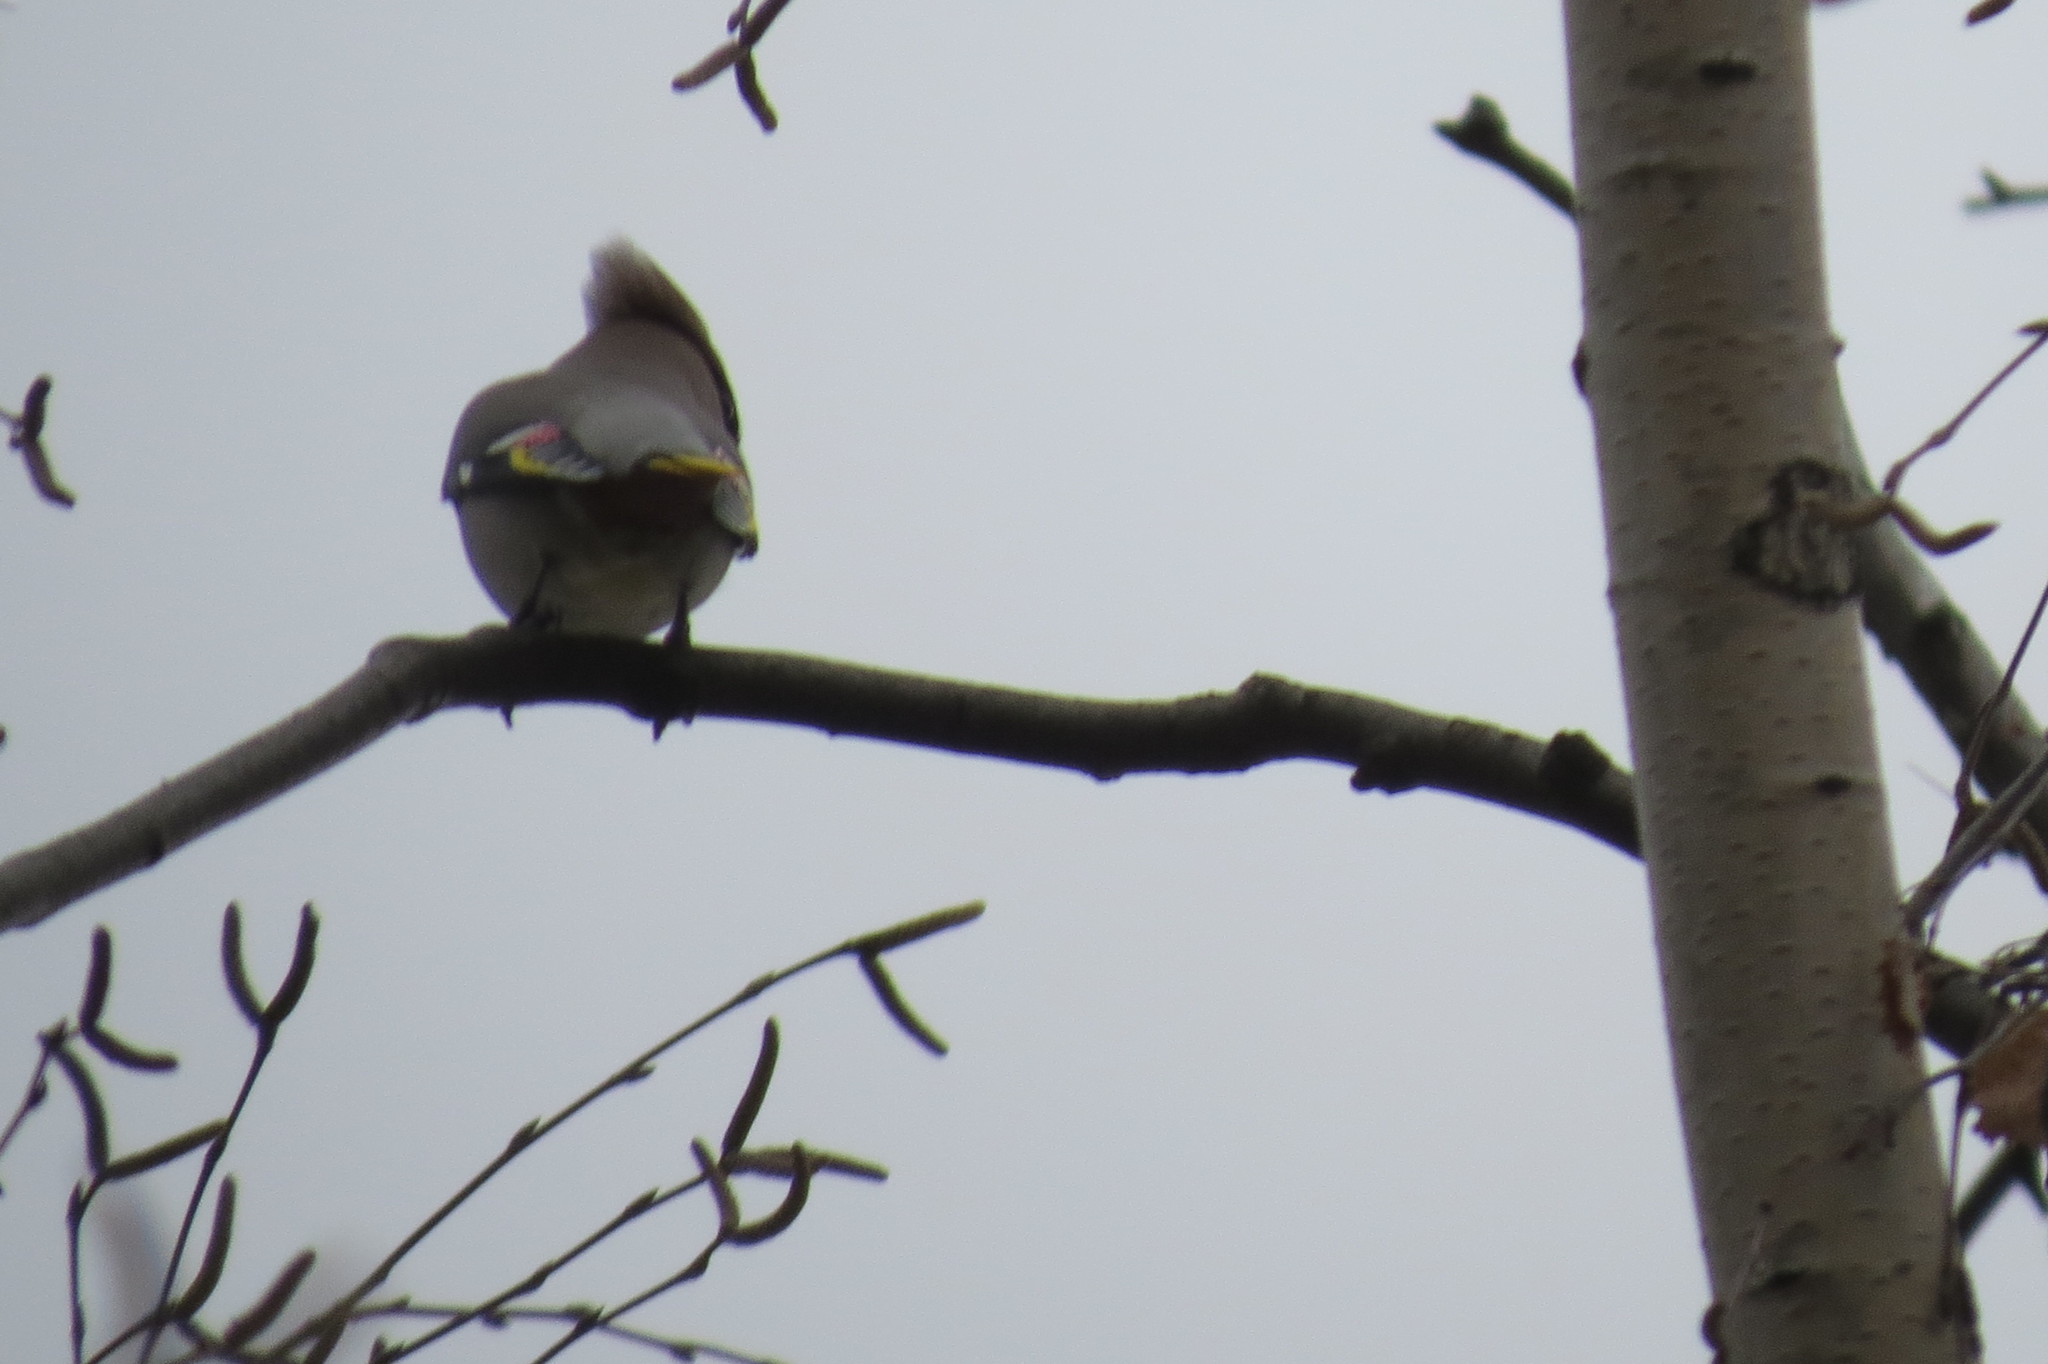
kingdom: Animalia
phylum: Chordata
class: Aves
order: Passeriformes
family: Bombycillidae
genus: Bombycilla
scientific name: Bombycilla garrulus
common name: Bohemian waxwing
